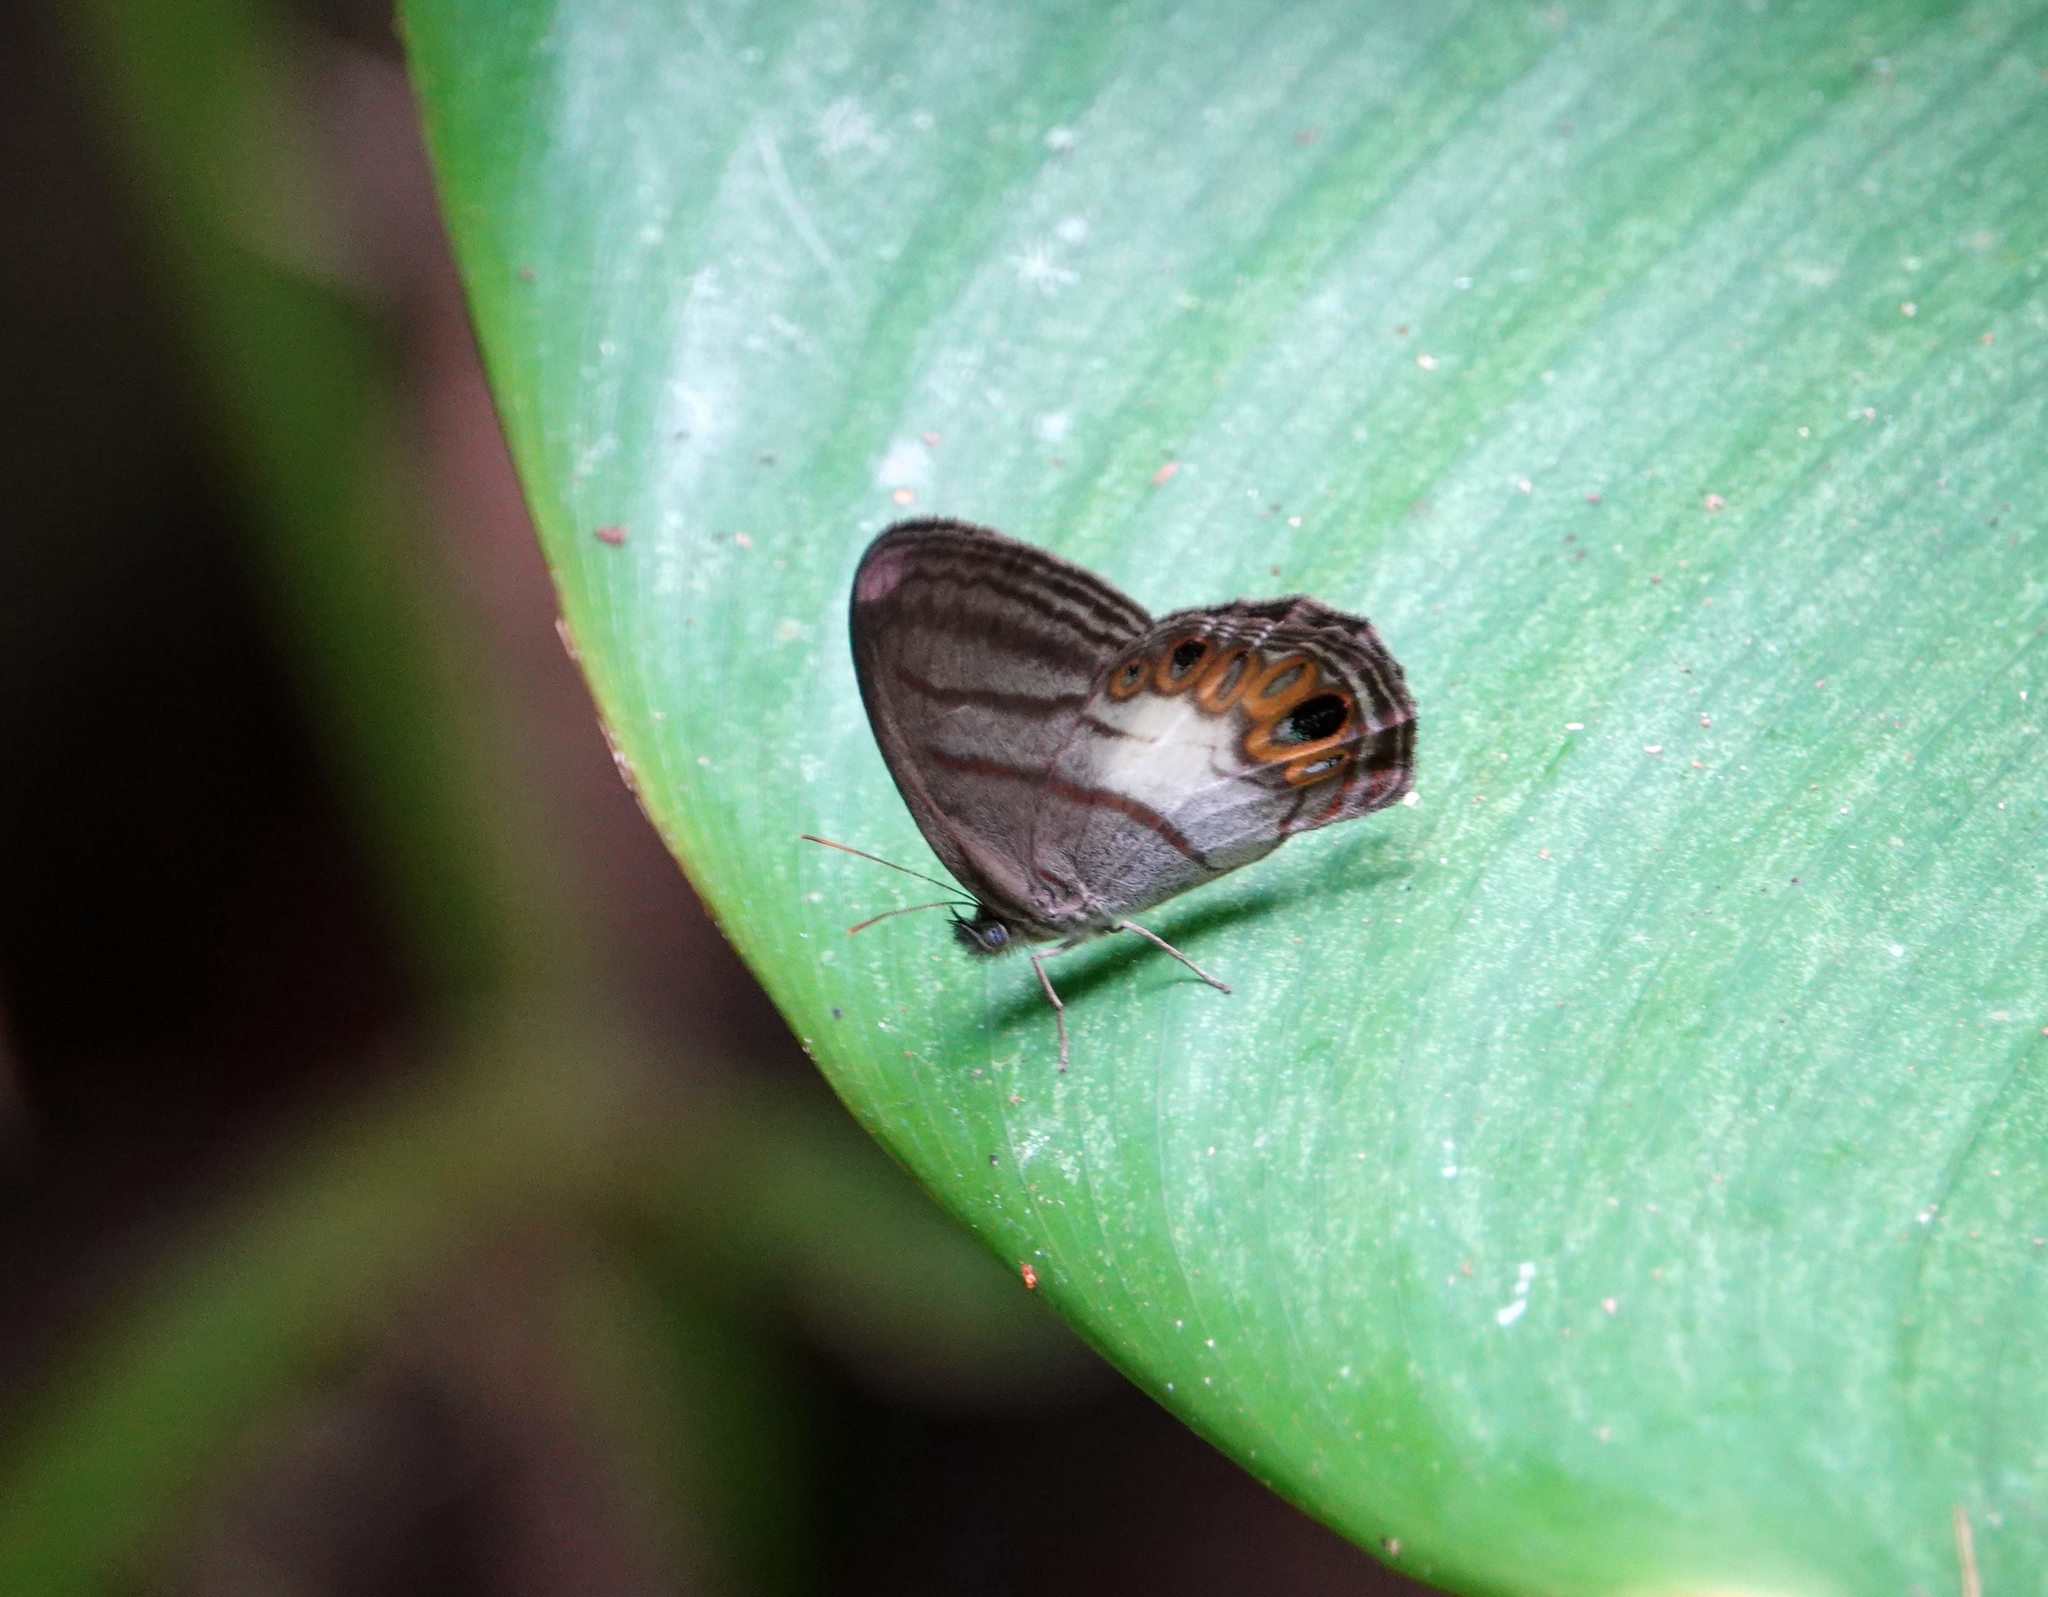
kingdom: Animalia
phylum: Arthropoda
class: Insecta
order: Lepidoptera
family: Nymphalidae
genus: Nhambikuara
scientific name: Nhambikuara
